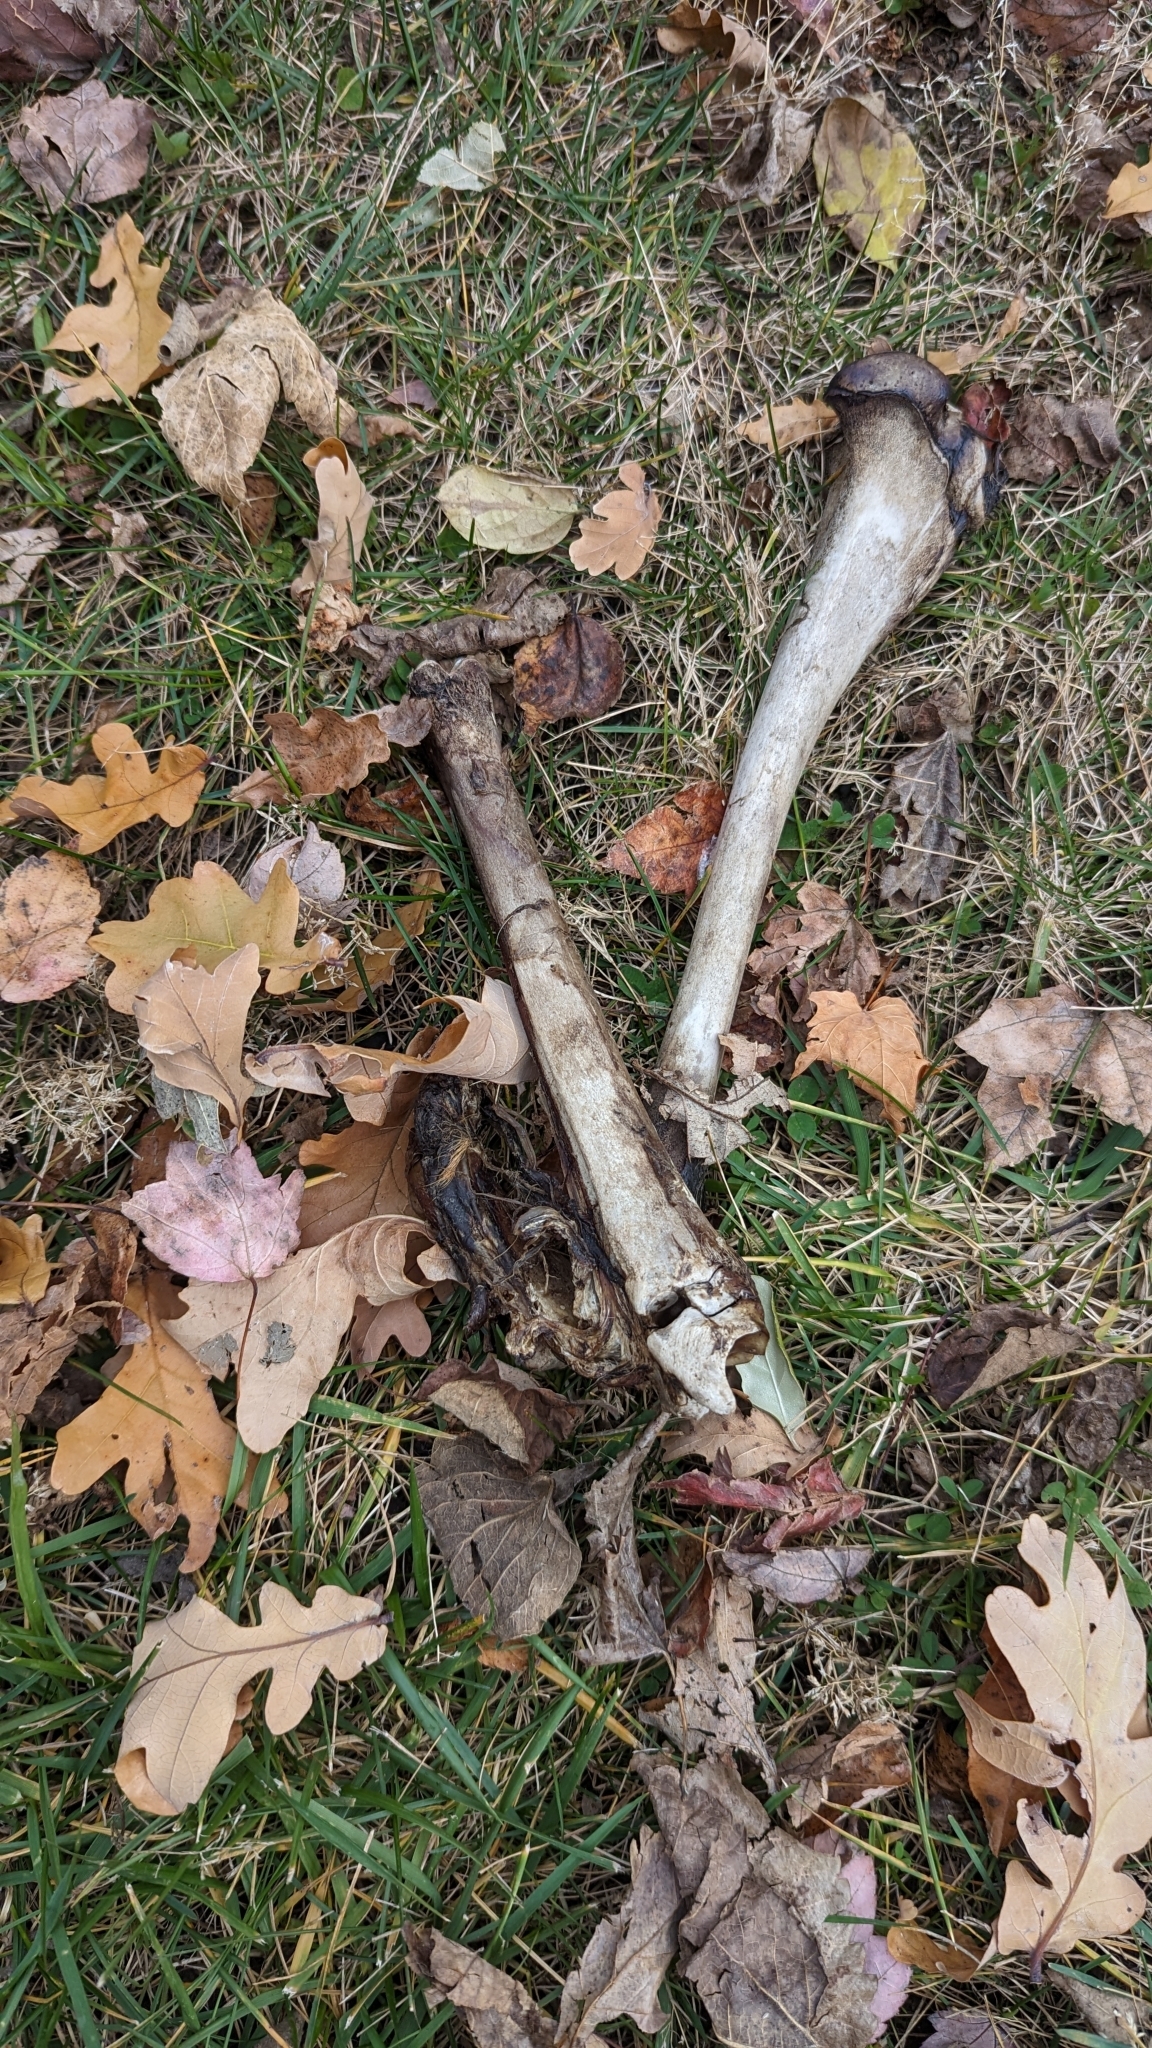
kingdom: Animalia
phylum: Chordata
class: Mammalia
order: Artiodactyla
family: Cervidae
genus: Odocoileus
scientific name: Odocoileus virginianus
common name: White-tailed deer
